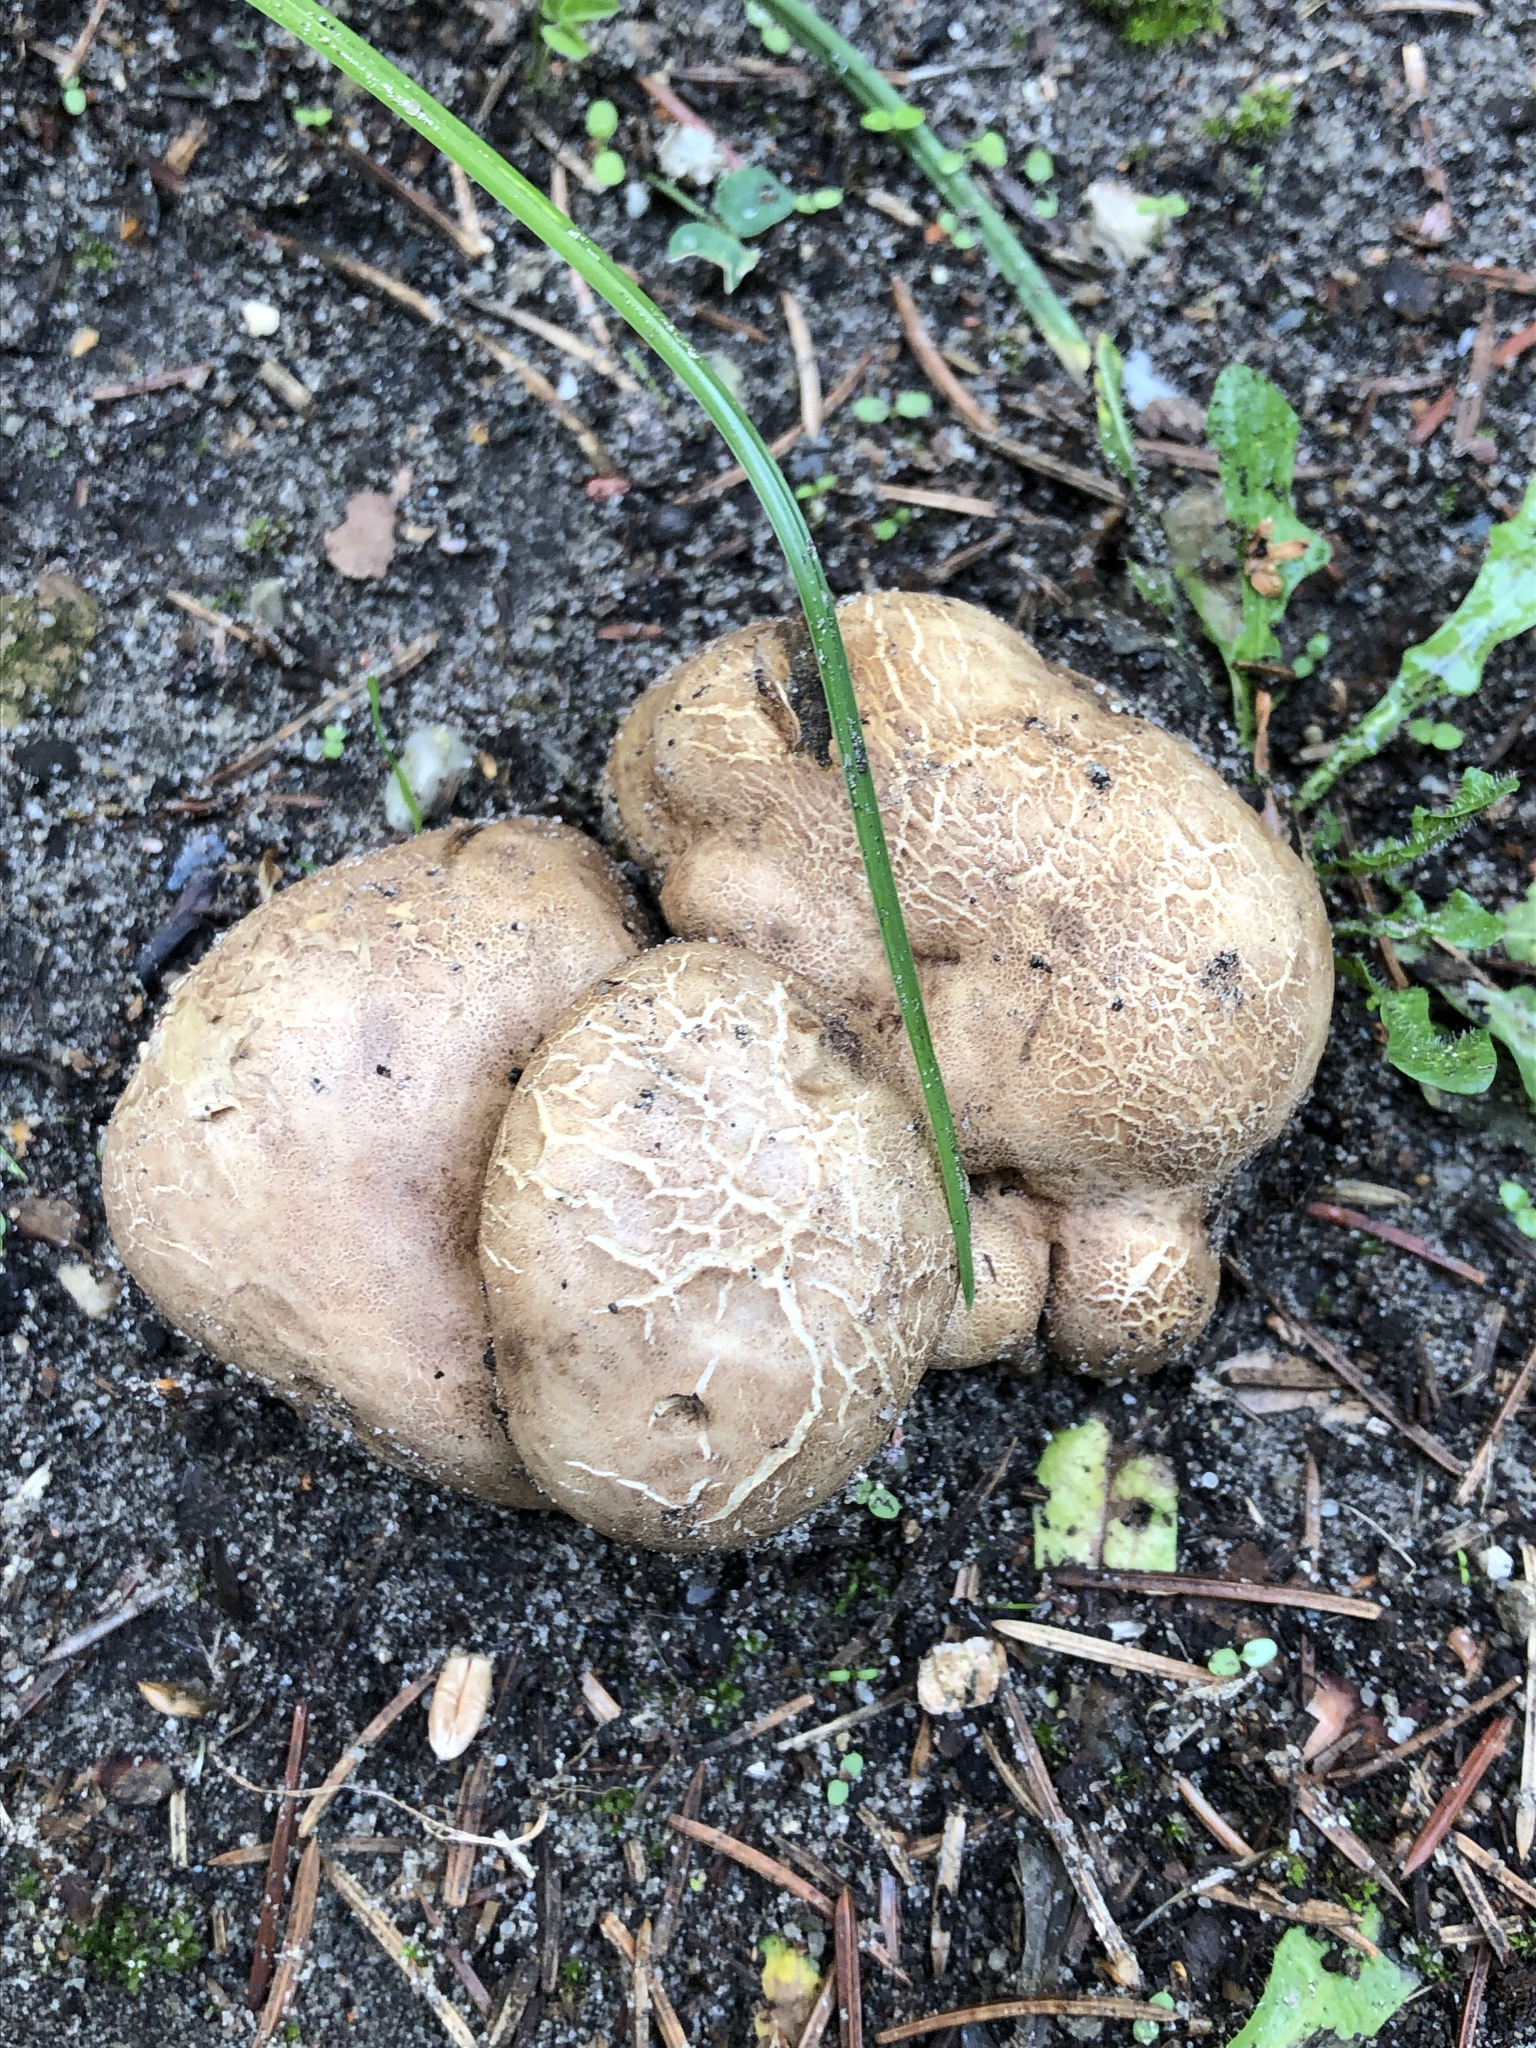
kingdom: Fungi
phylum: Basidiomycota
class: Agaricomycetes
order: Boletales
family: Sclerodermataceae
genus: Scleroderma
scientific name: Scleroderma polyrhizum
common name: Many-rooted earthball
